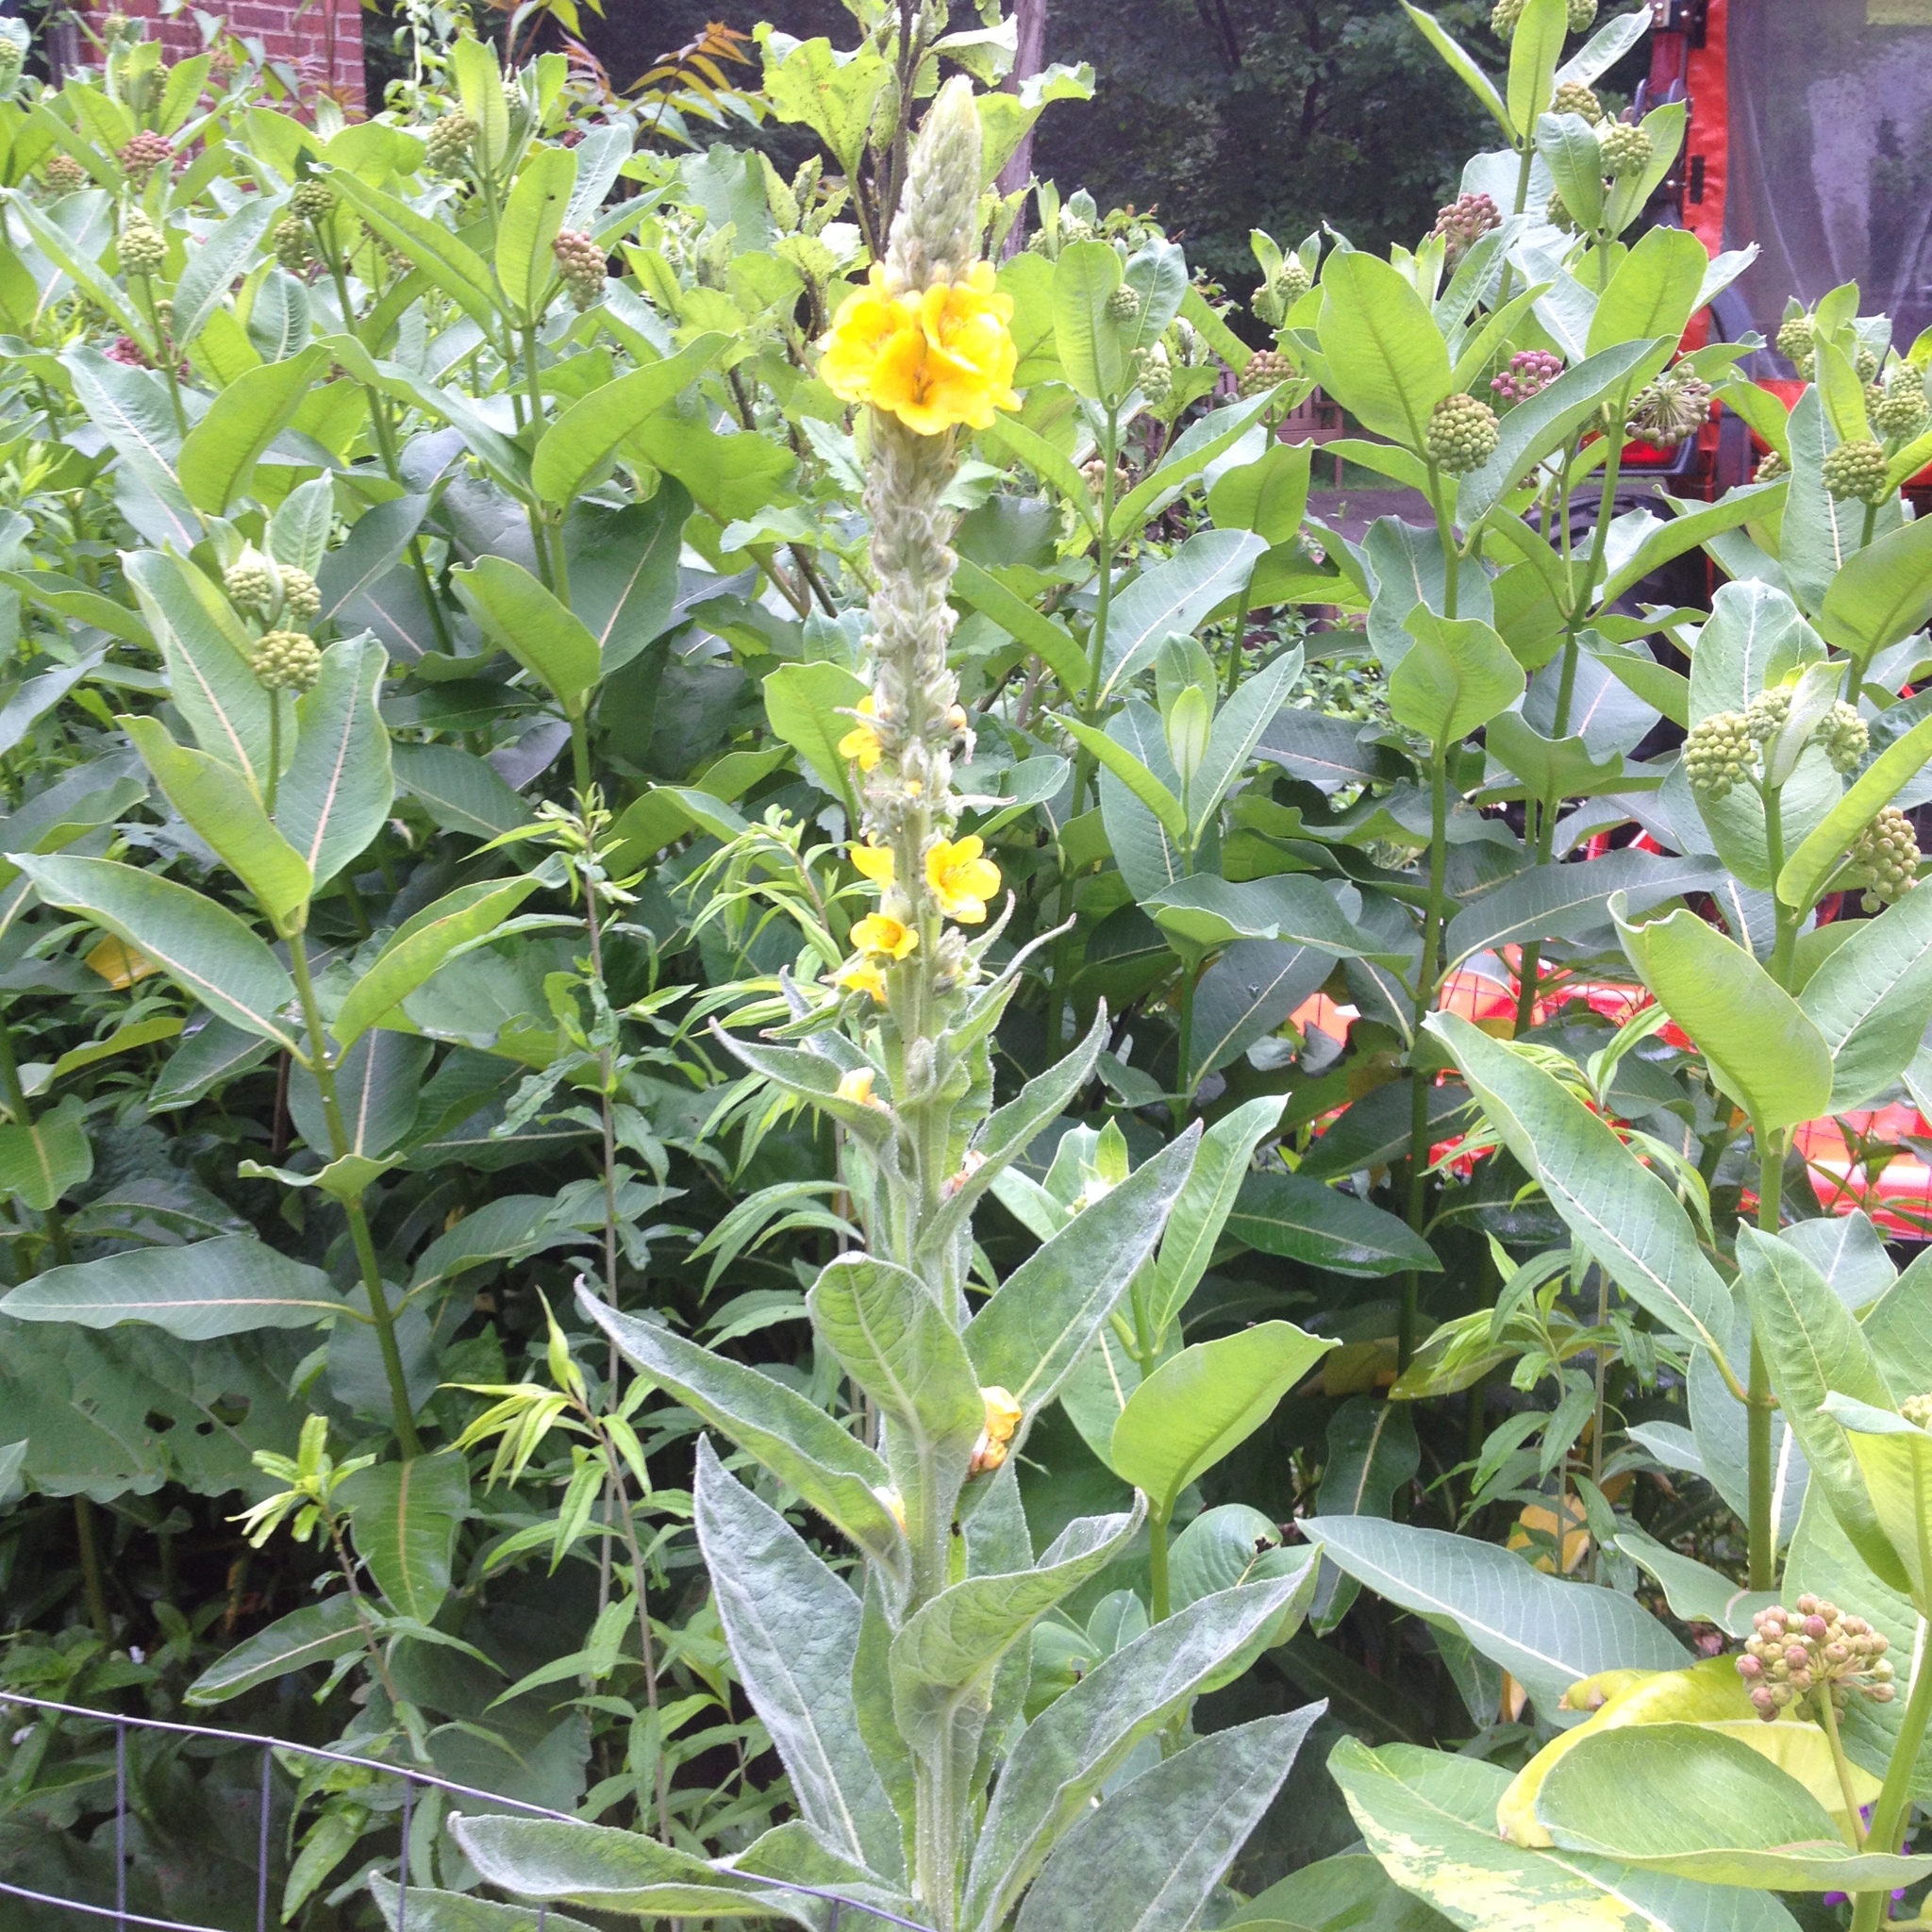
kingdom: Plantae
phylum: Tracheophyta
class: Magnoliopsida
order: Lamiales
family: Scrophulariaceae
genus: Verbascum
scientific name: Verbascum thapsus
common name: Common mullein
